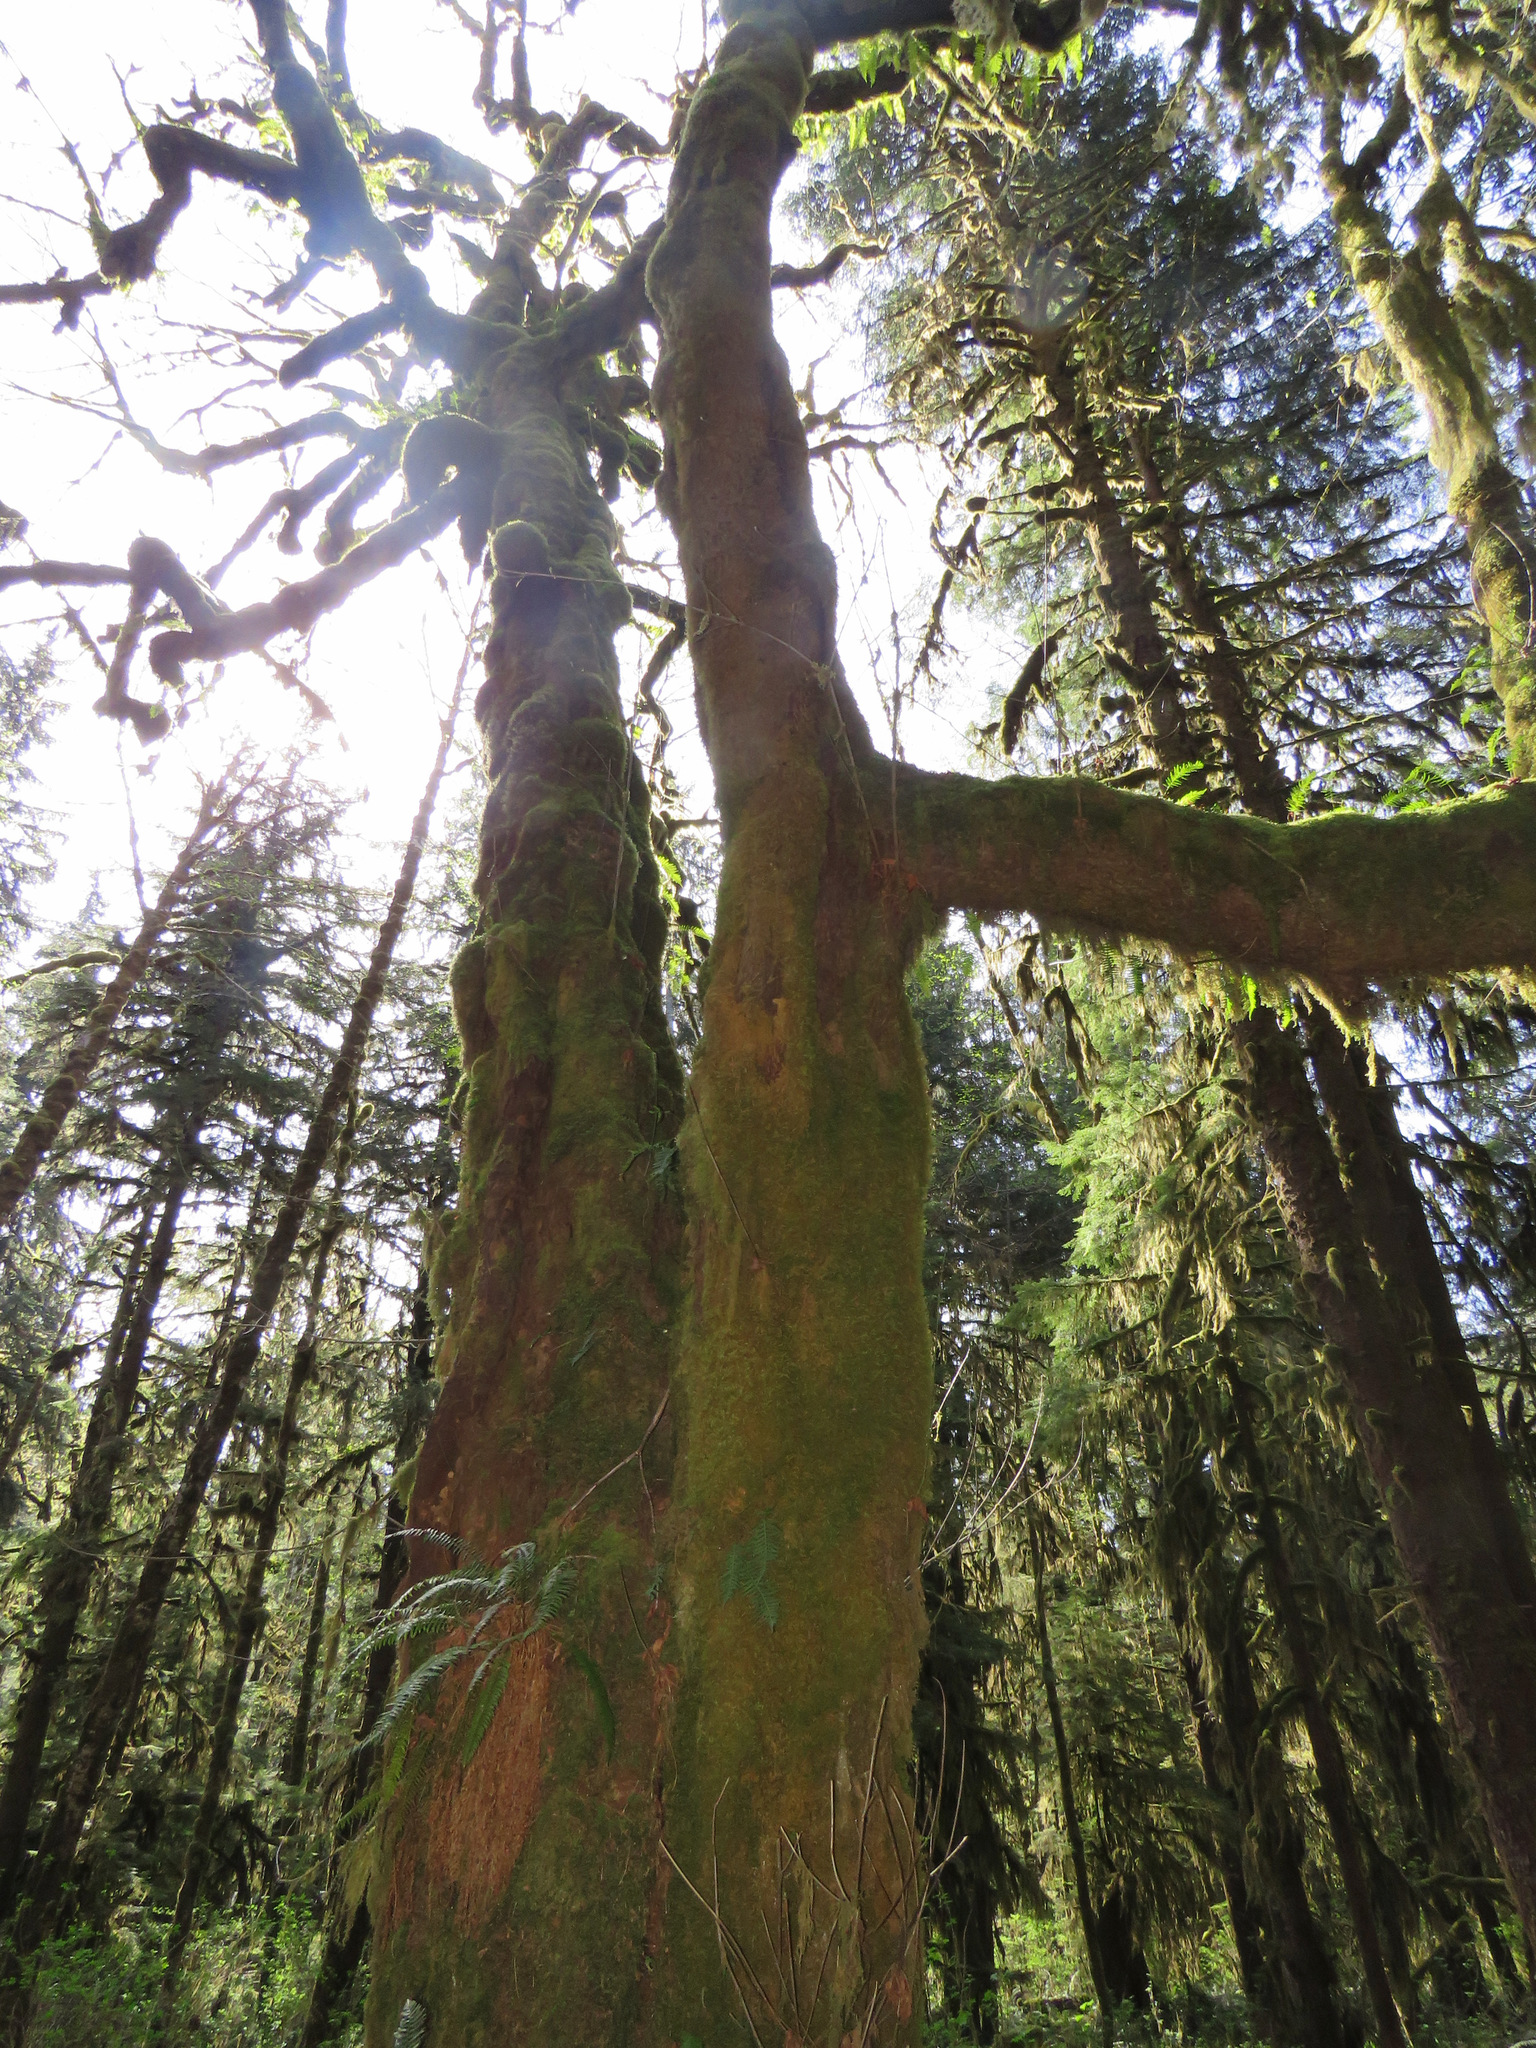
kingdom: Plantae
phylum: Tracheophyta
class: Magnoliopsida
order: Sapindales
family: Sapindaceae
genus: Acer
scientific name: Acer macrophyllum
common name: Oregon maple
